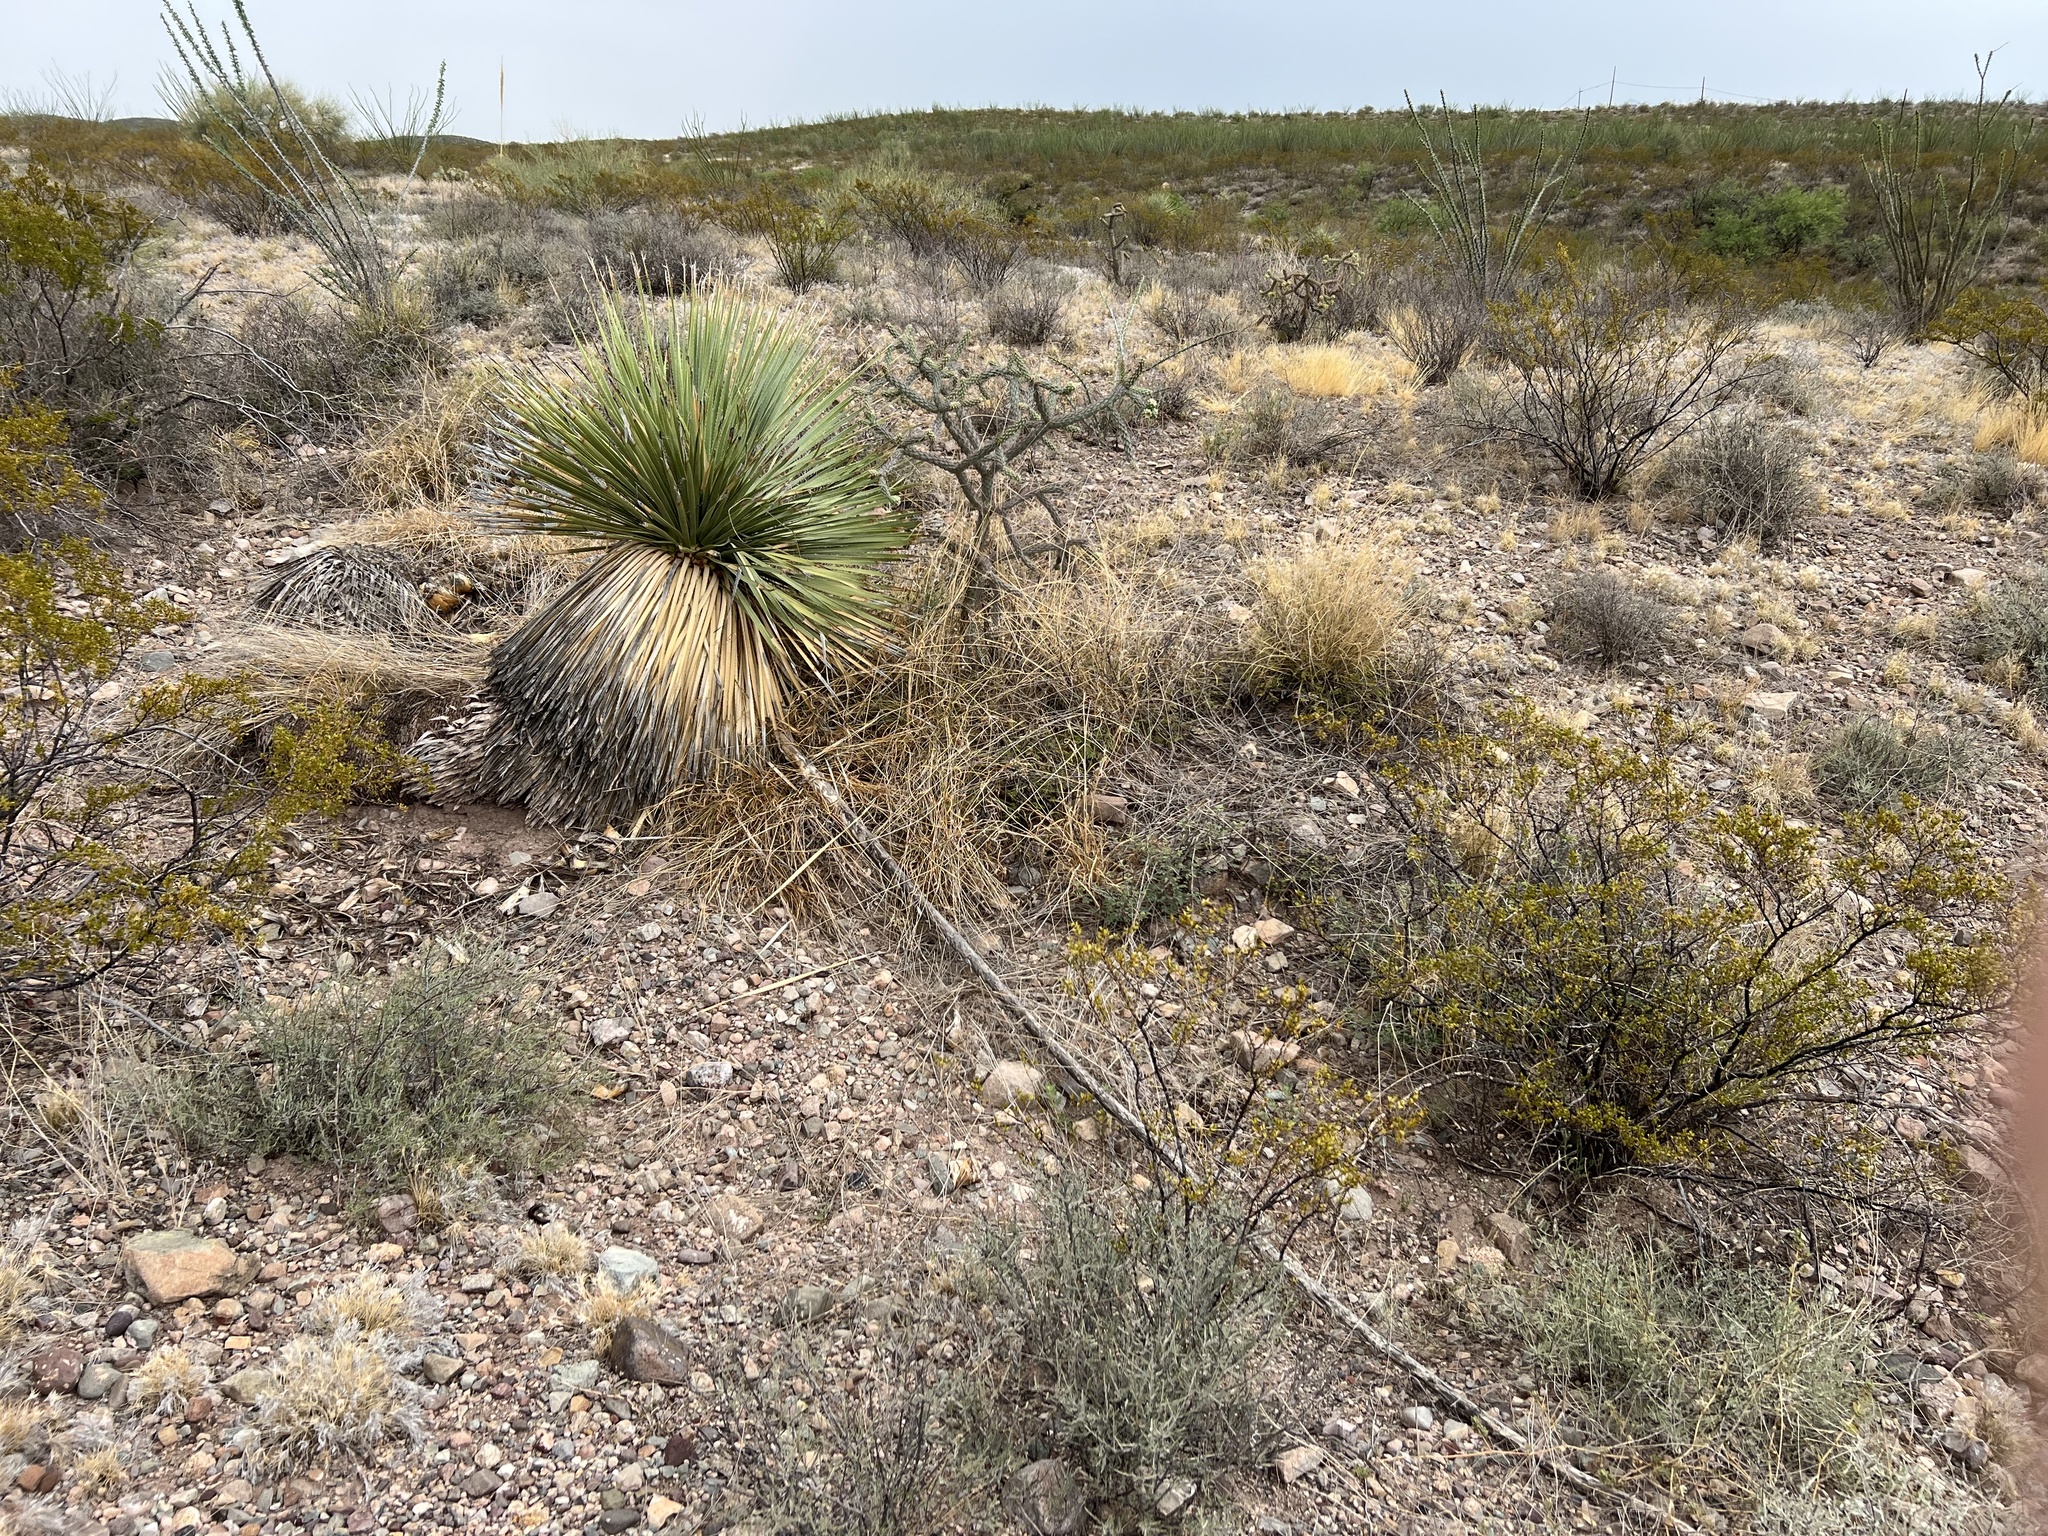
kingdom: Plantae
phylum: Tracheophyta
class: Liliopsida
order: Asparagales
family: Asparagaceae
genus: Dasylirion
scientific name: Dasylirion wheeleri
